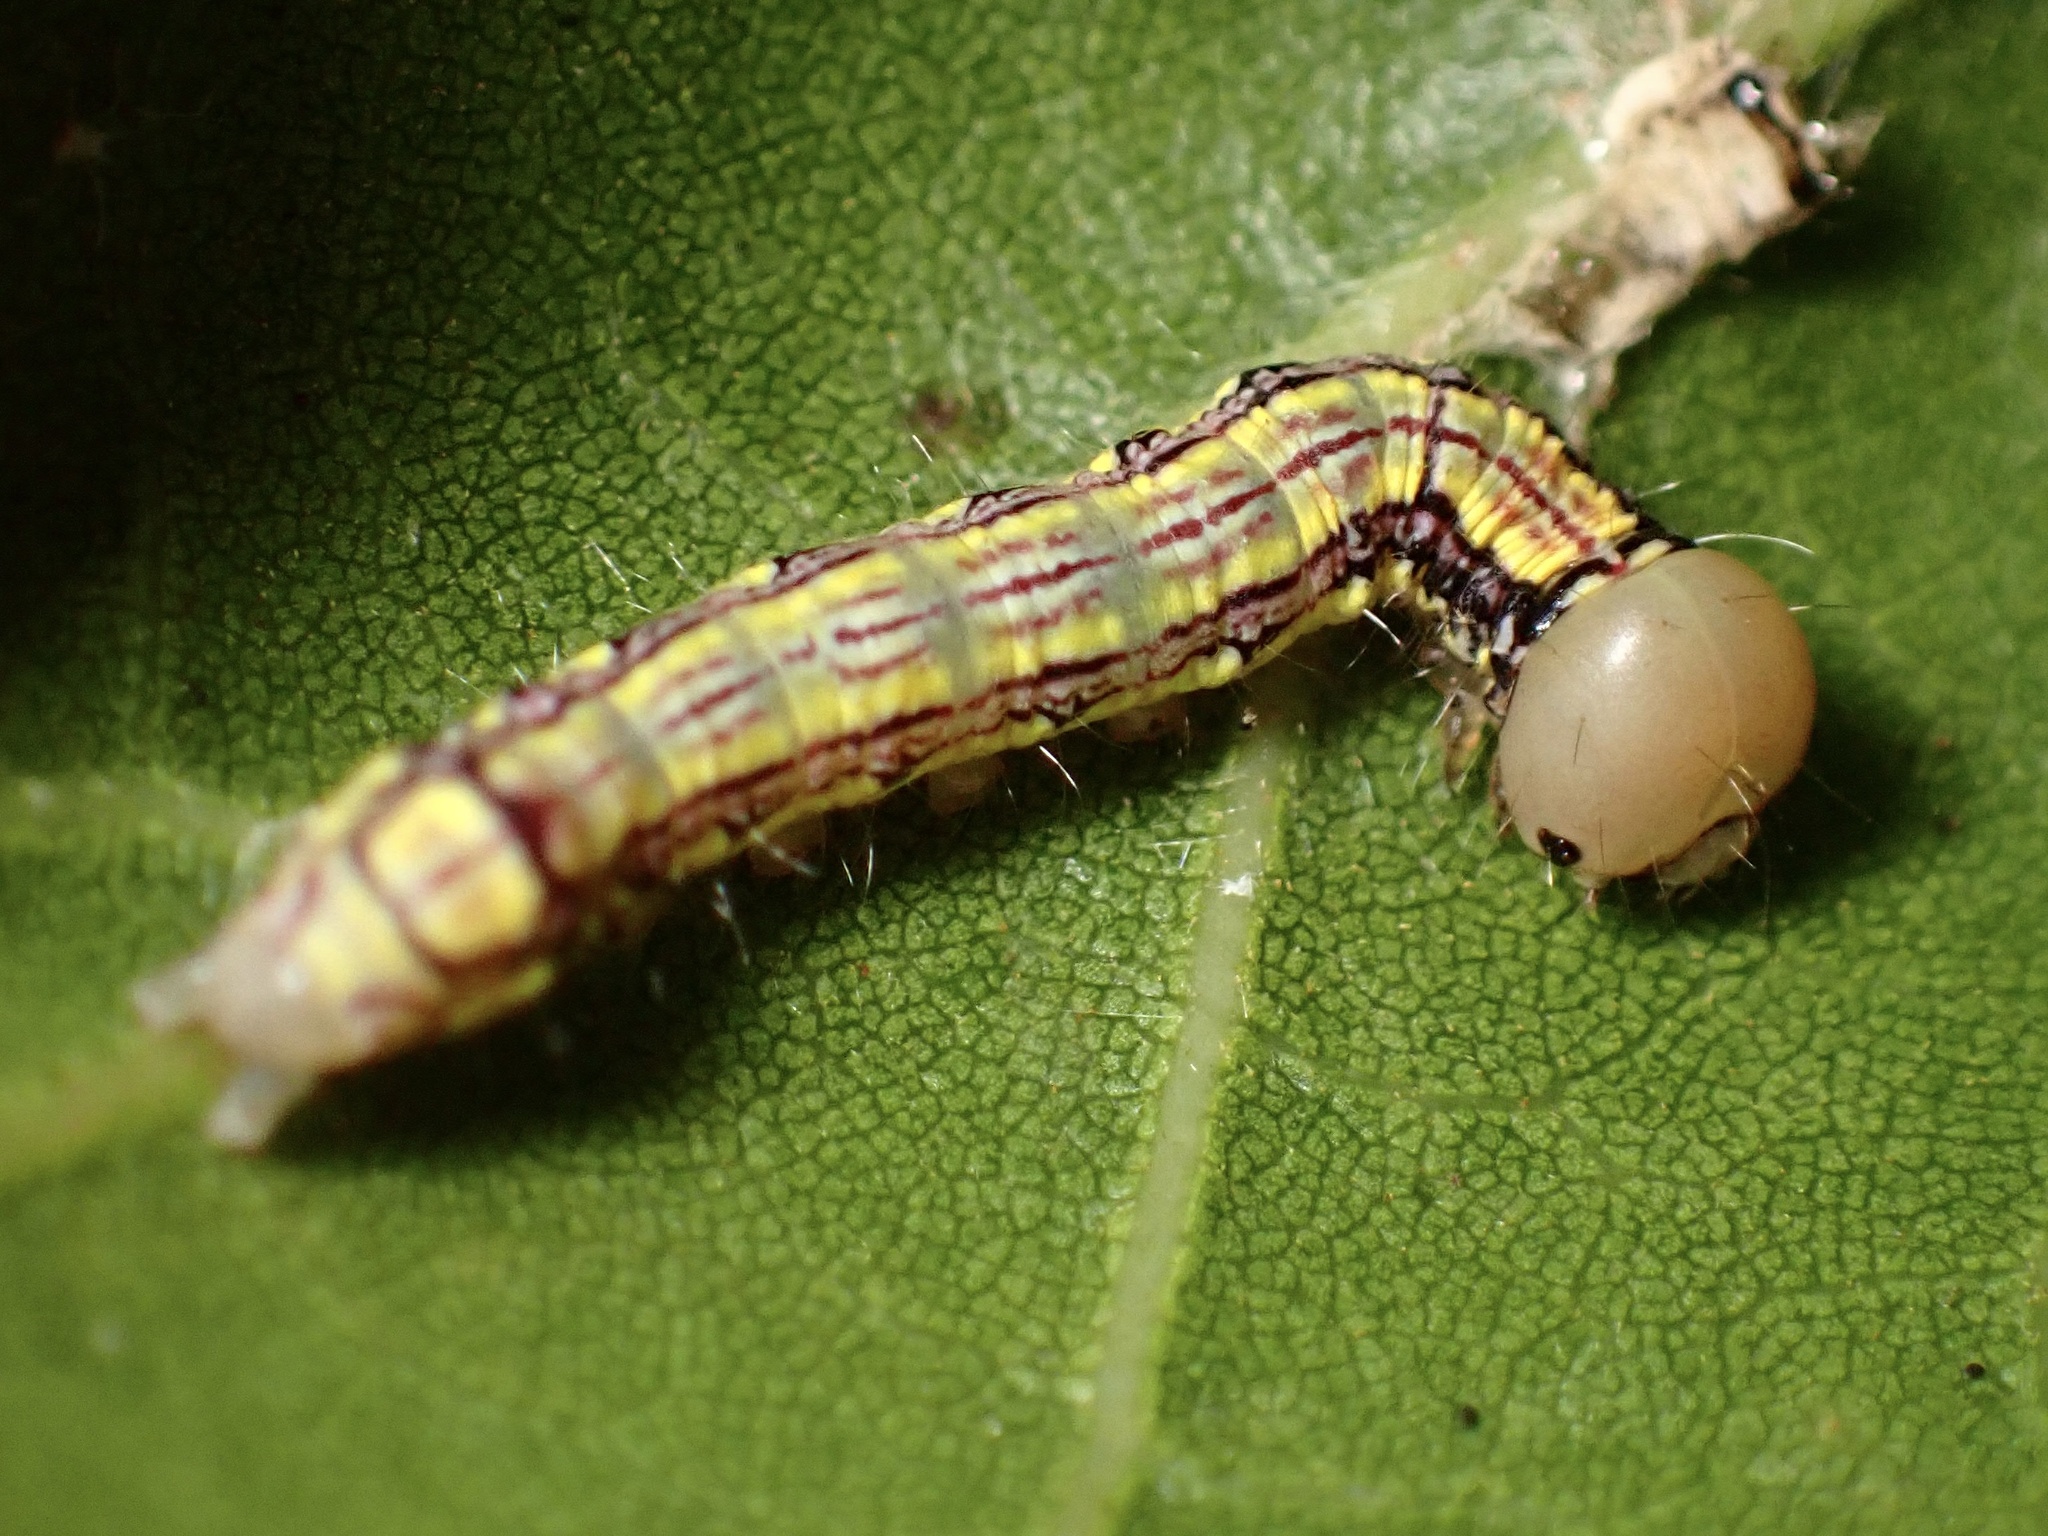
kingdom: Animalia
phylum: Arthropoda
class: Insecta
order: Lepidoptera
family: Notodontidae
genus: Phryganidia
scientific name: Phryganidia californica
